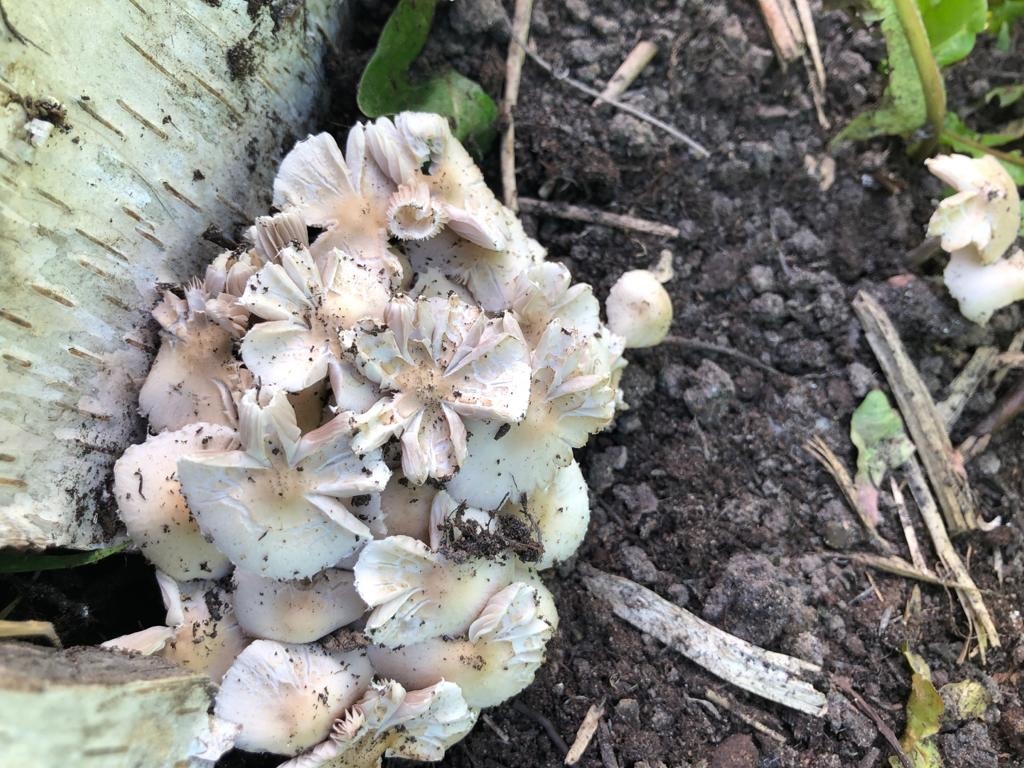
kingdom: Fungi
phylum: Basidiomycota
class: Agaricomycetes
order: Agaricales
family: Psathyrellaceae
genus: Candolleomyces
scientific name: Candolleomyces candolleanus
